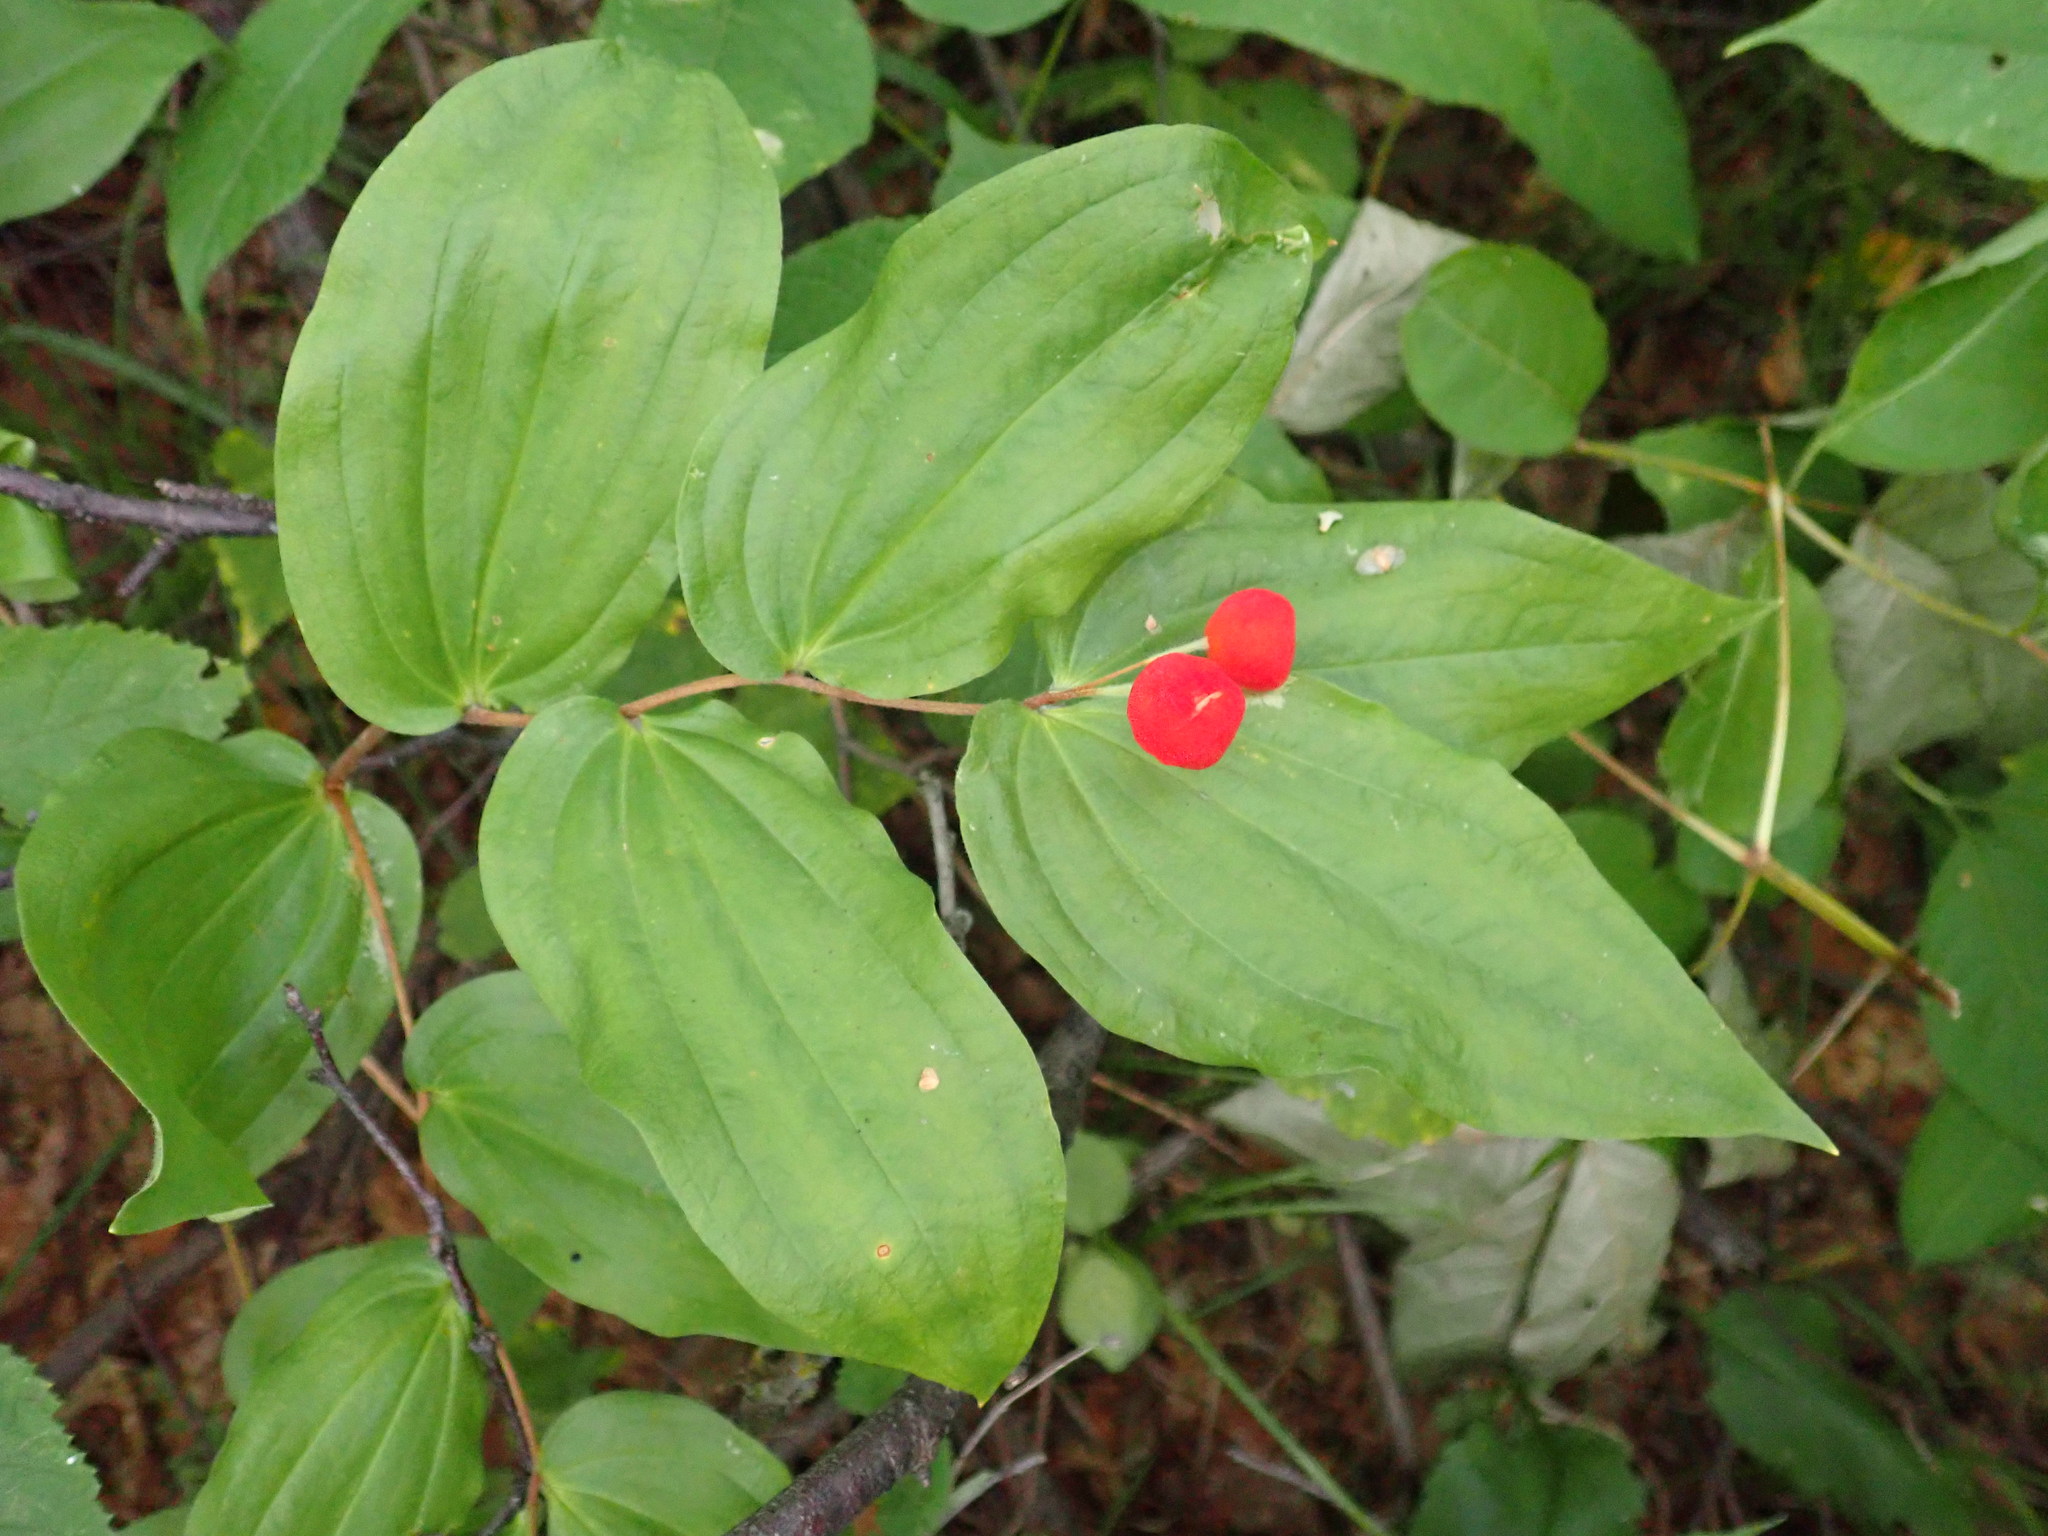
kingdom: Plantae
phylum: Tracheophyta
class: Liliopsida
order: Liliales
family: Liliaceae
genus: Prosartes
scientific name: Prosartes trachycarpa
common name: Rough-fruit fairy-bells
